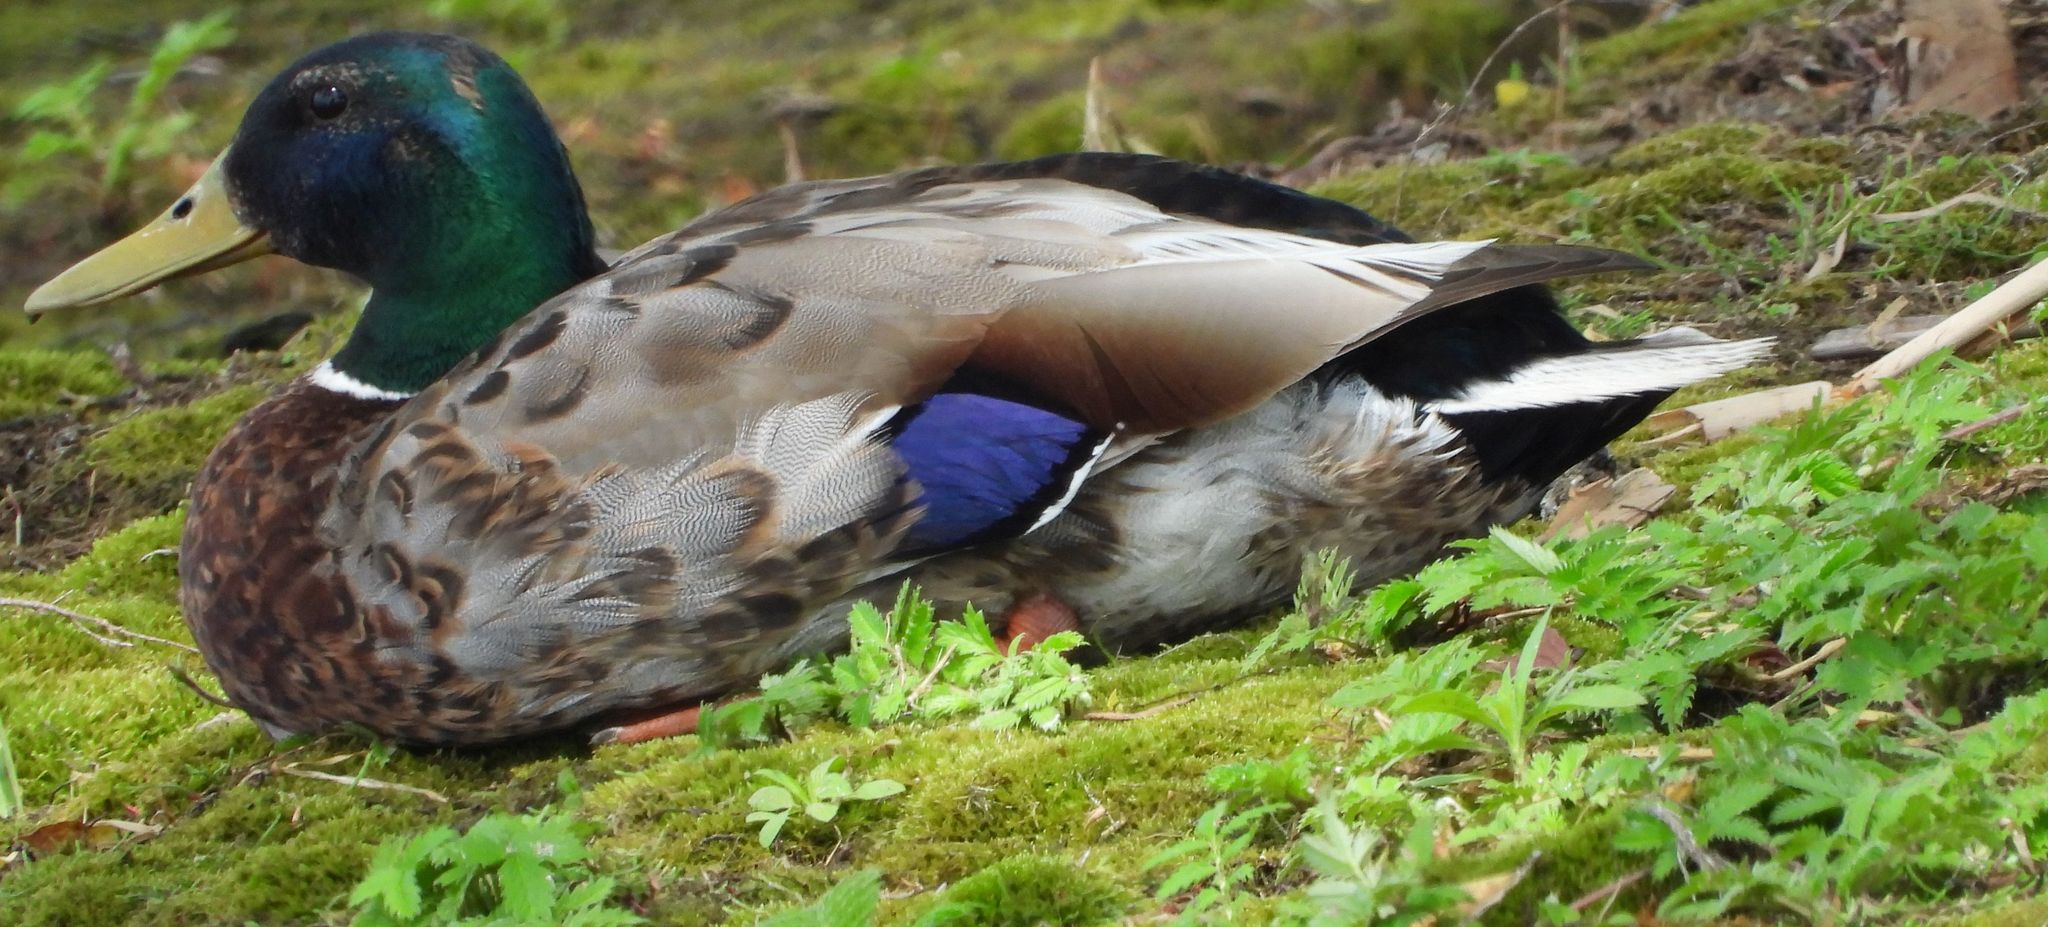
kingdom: Animalia
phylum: Chordata
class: Aves
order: Anseriformes
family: Anatidae
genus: Anas
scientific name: Anas platyrhynchos
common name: Mallard
